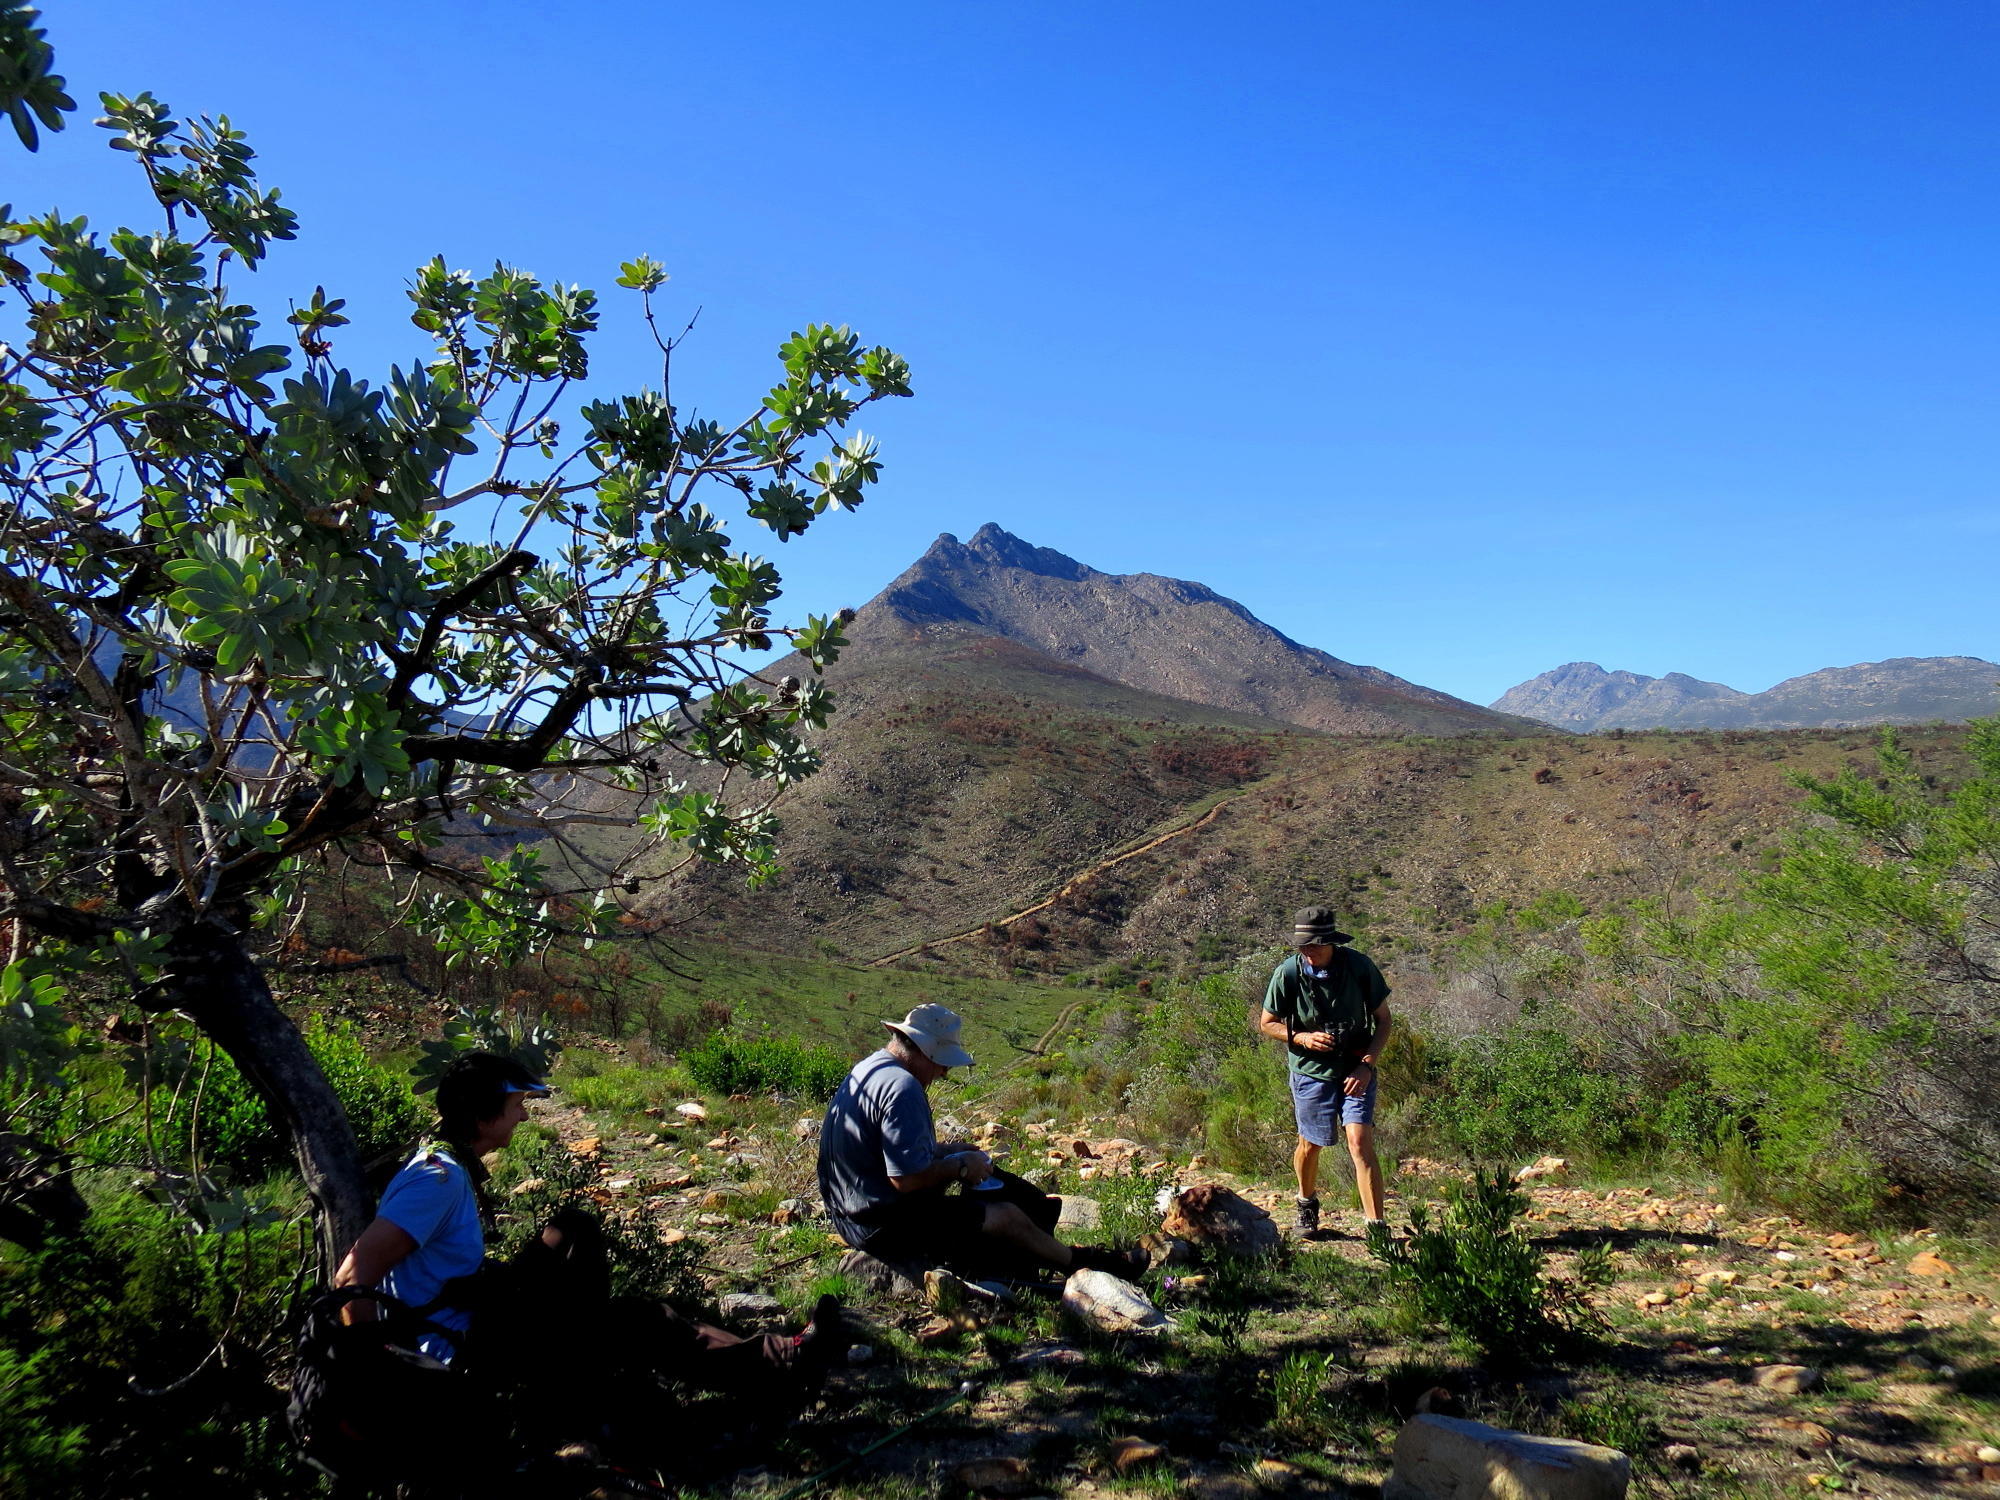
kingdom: Plantae
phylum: Tracheophyta
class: Magnoliopsida
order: Proteales
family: Proteaceae
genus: Protea
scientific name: Protea nitida
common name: Tree protea
